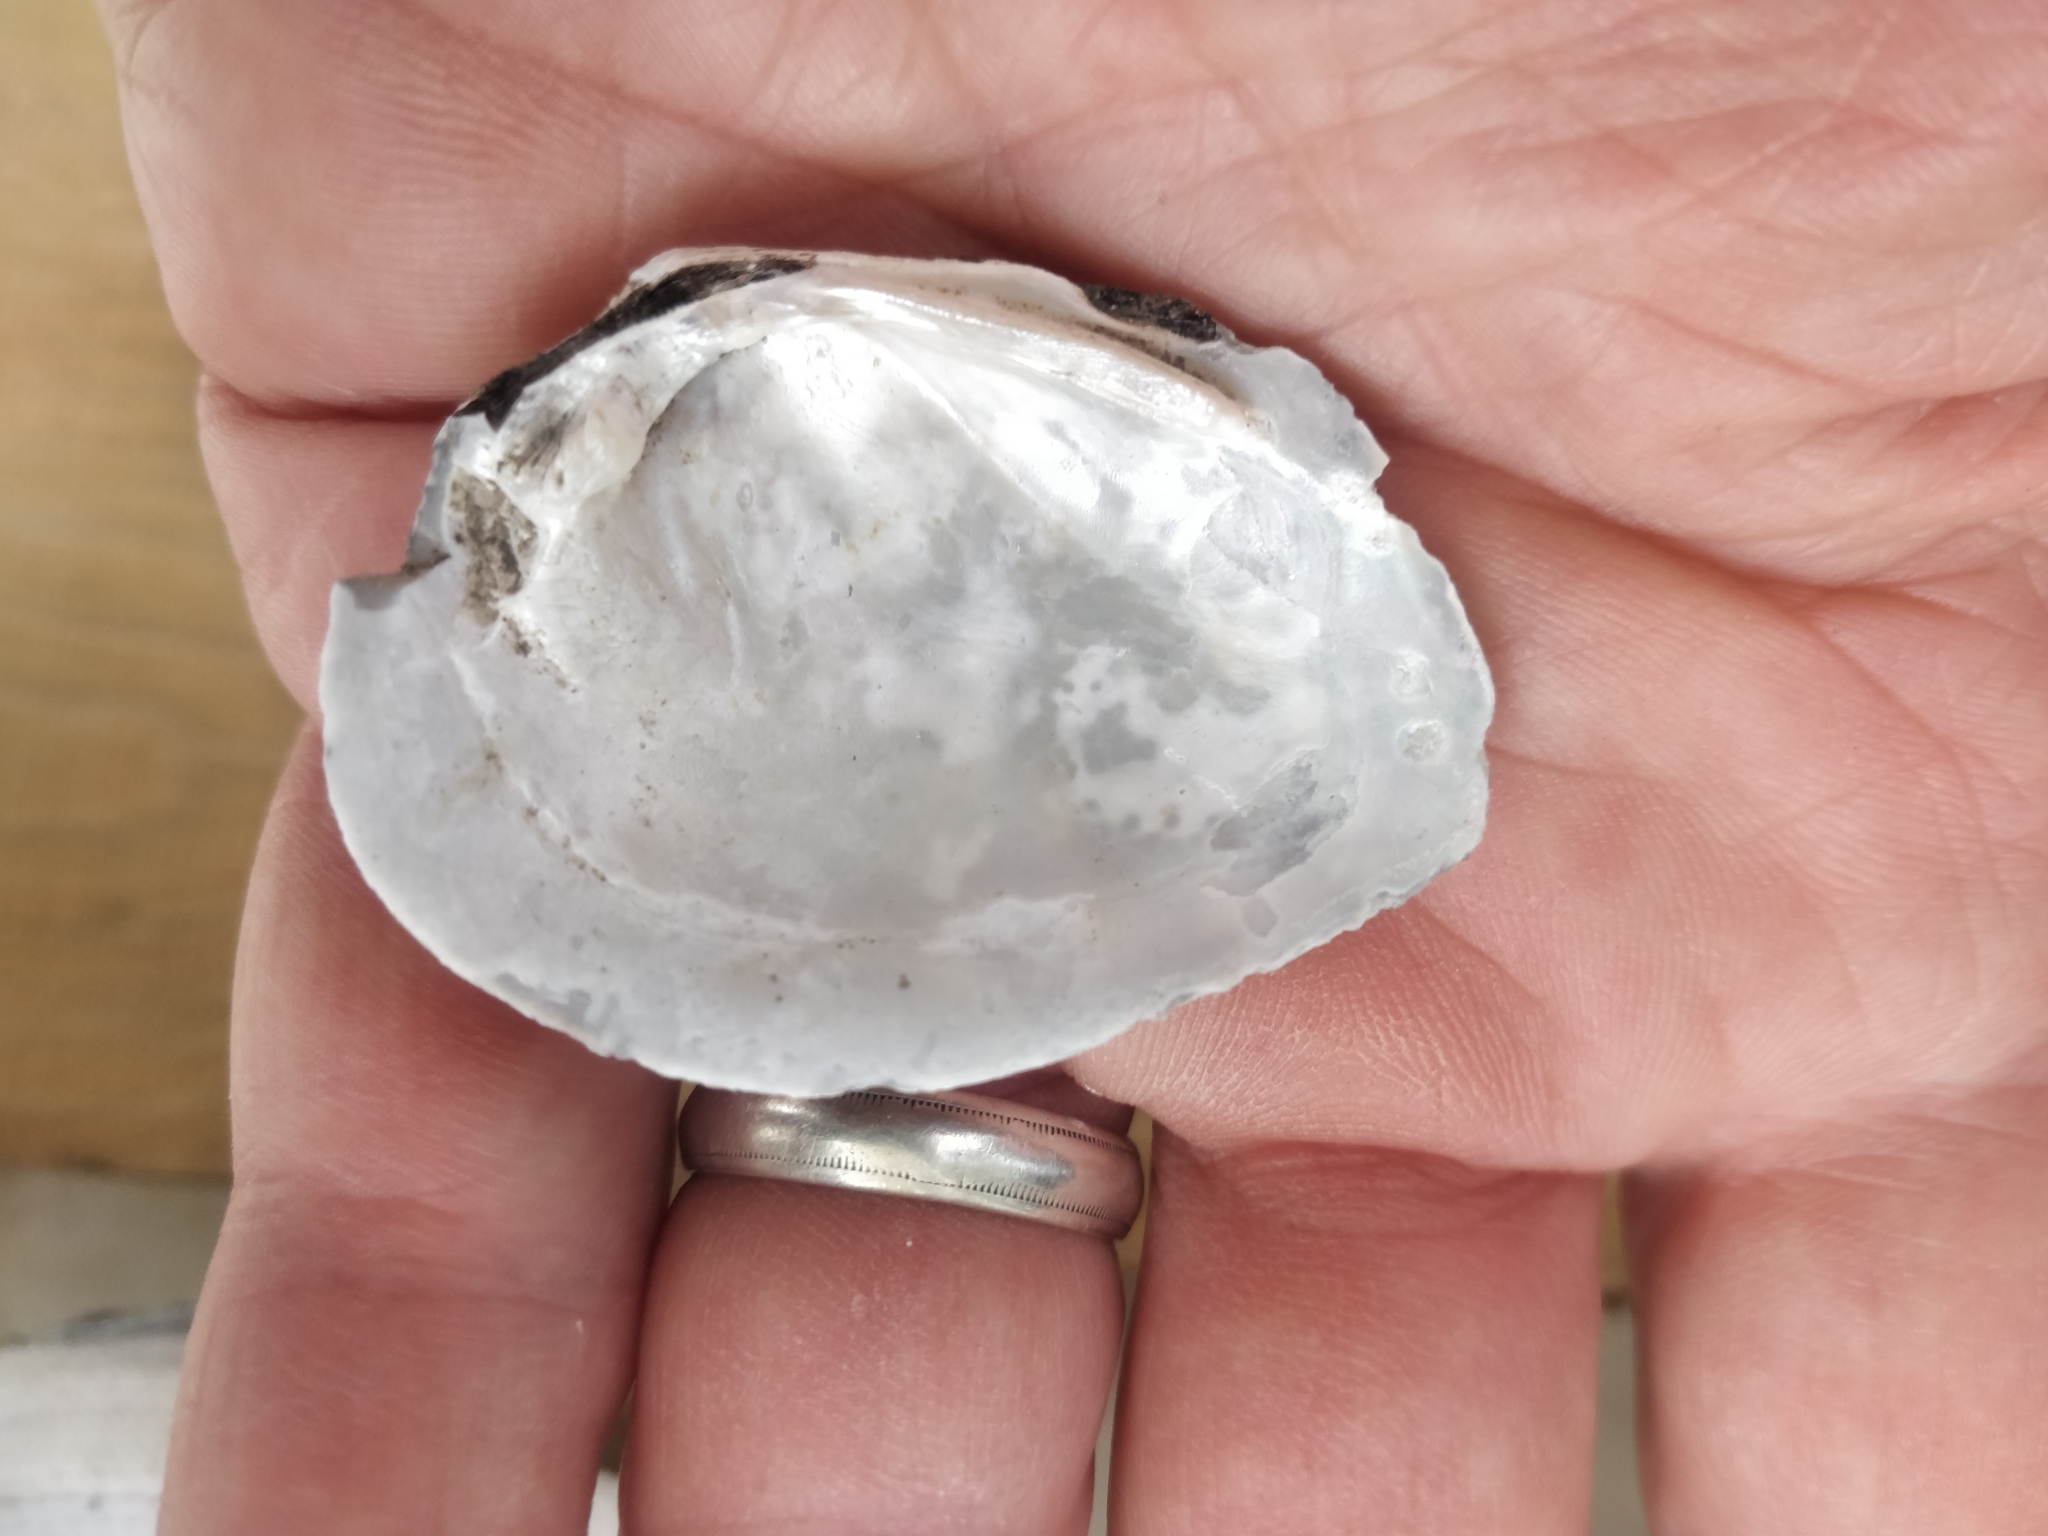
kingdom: Animalia
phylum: Mollusca
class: Bivalvia
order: Unionida
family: Unionidae
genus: Fusconaia
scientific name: Fusconaia flava
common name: Wabash pigtoe
